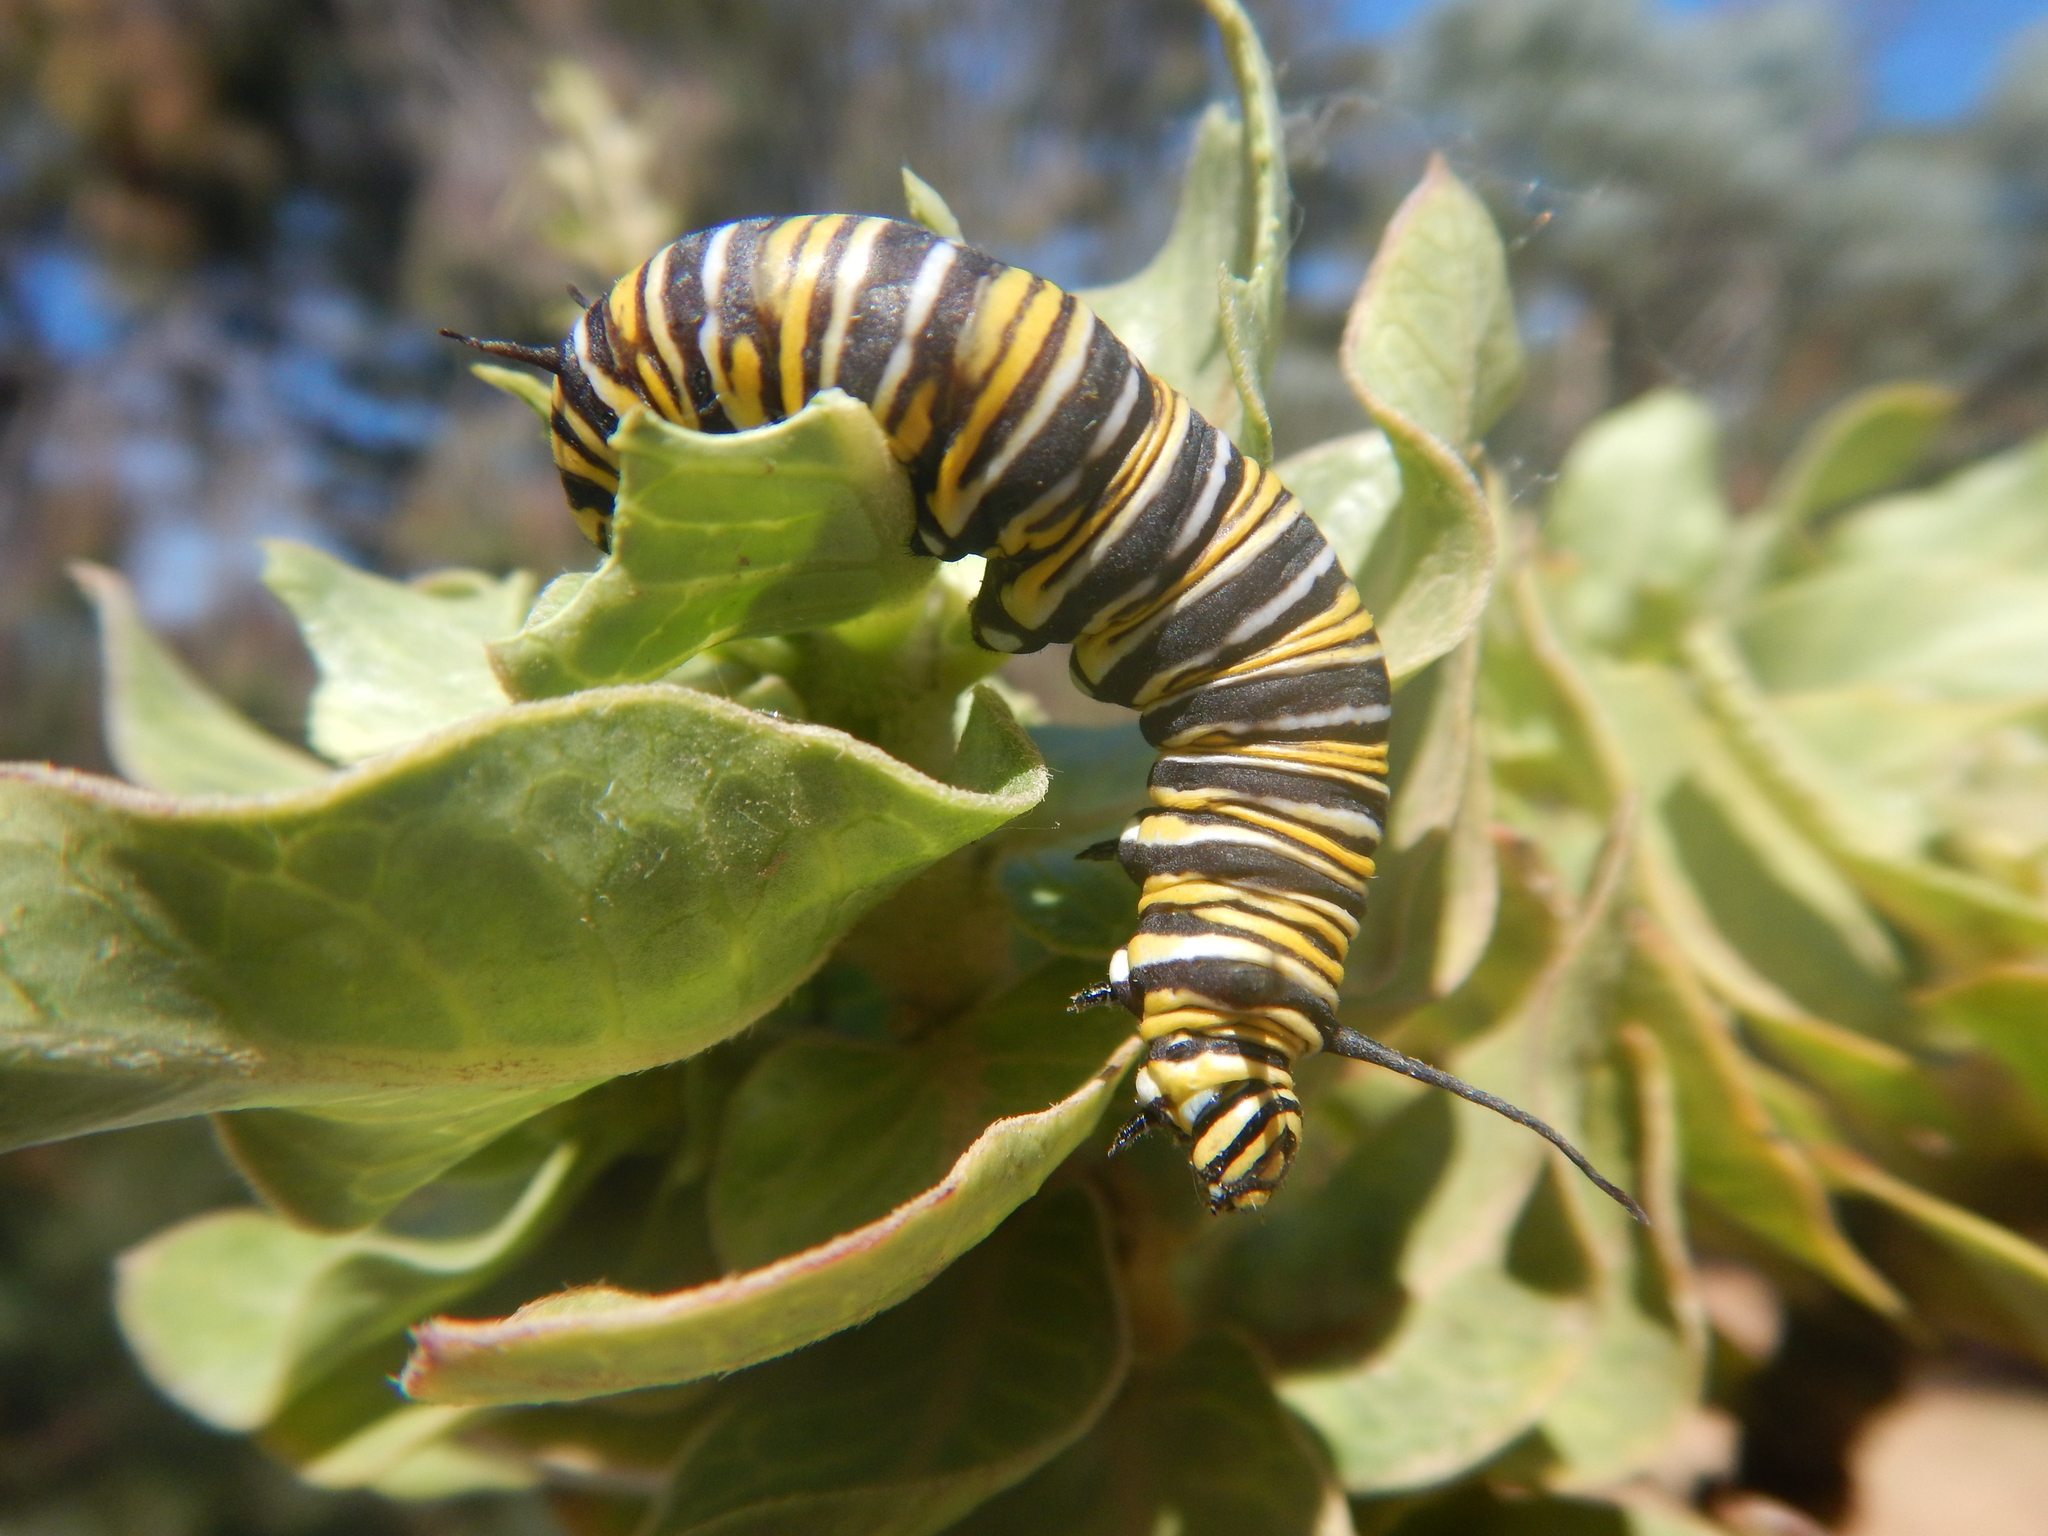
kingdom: Animalia
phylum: Arthropoda
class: Insecta
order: Lepidoptera
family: Nymphalidae
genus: Danaus
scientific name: Danaus plexippus
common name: Monarch
